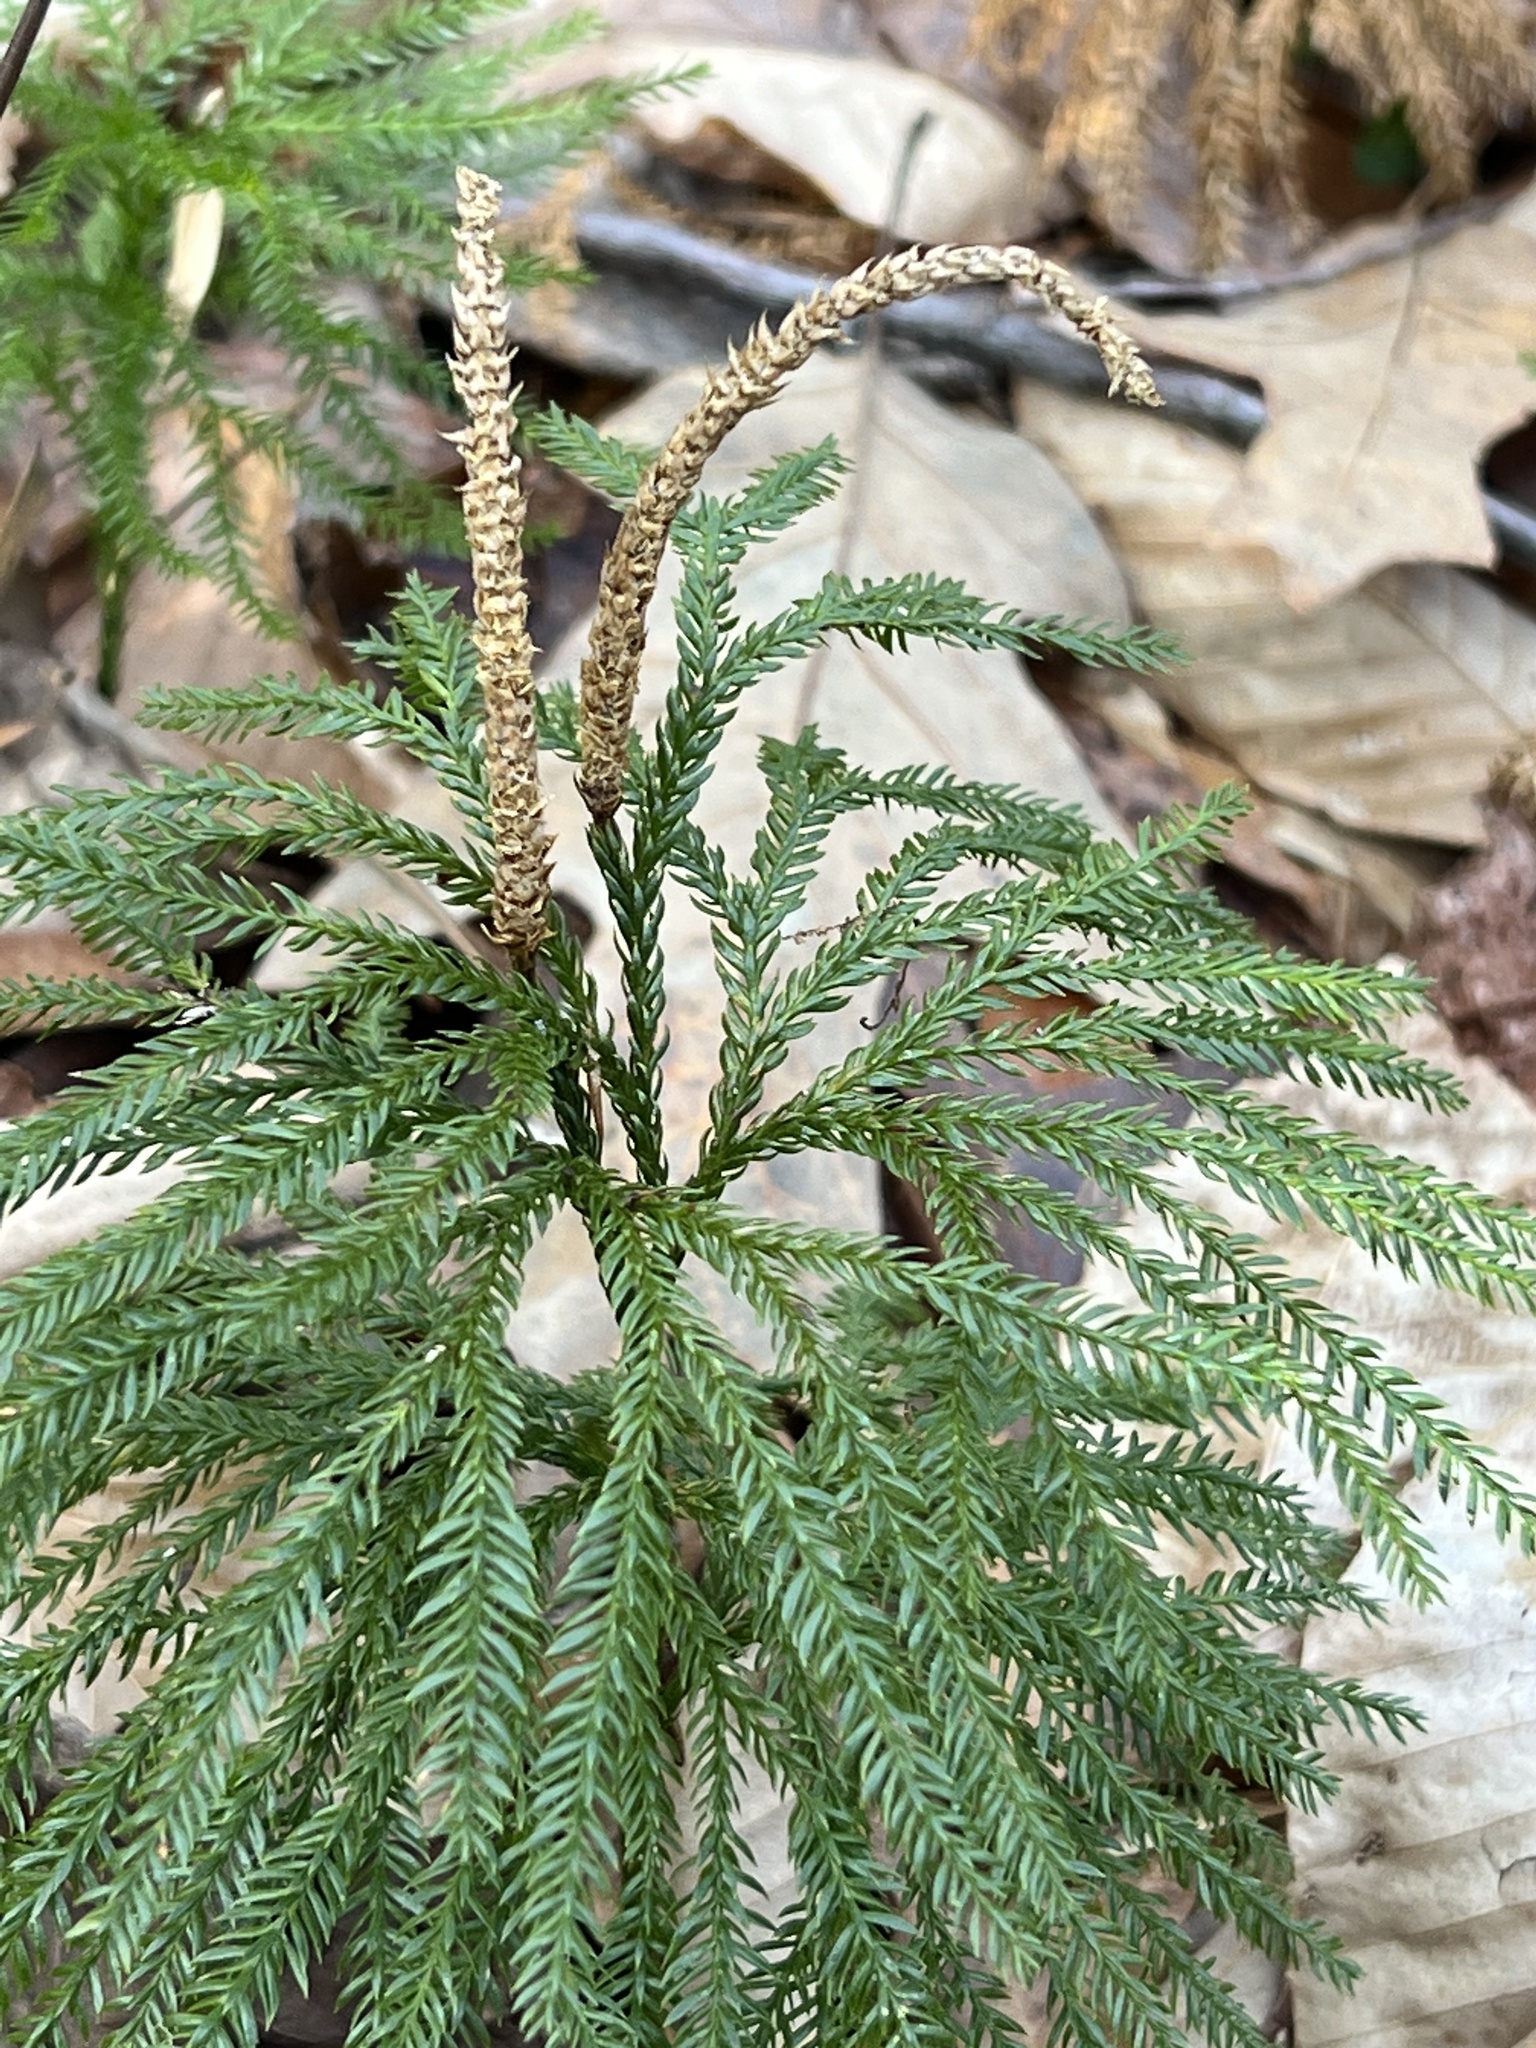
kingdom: Plantae
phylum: Tracheophyta
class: Lycopodiopsida
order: Lycopodiales
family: Lycopodiaceae
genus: Dendrolycopodium
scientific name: Dendrolycopodium obscurum
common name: Common ground-pine
